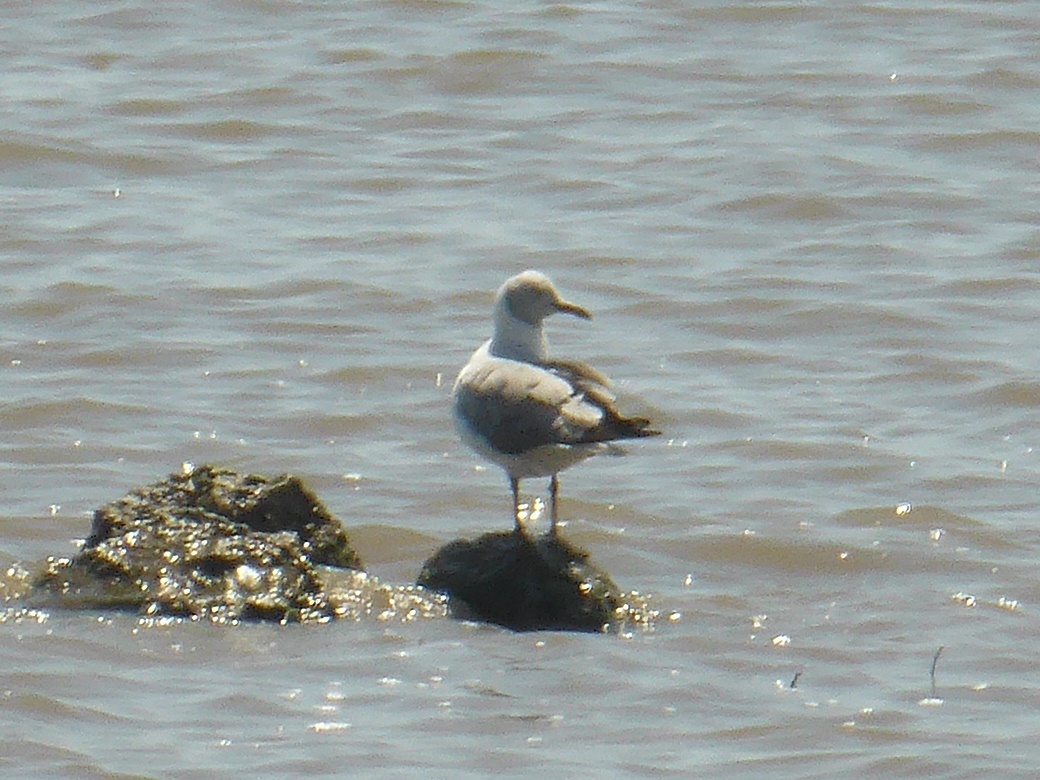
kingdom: Animalia
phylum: Chordata
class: Aves
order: Charadriiformes
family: Laridae
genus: Chroicocephalus
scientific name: Chroicocephalus cirrocephalus
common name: Grey-headed gull
